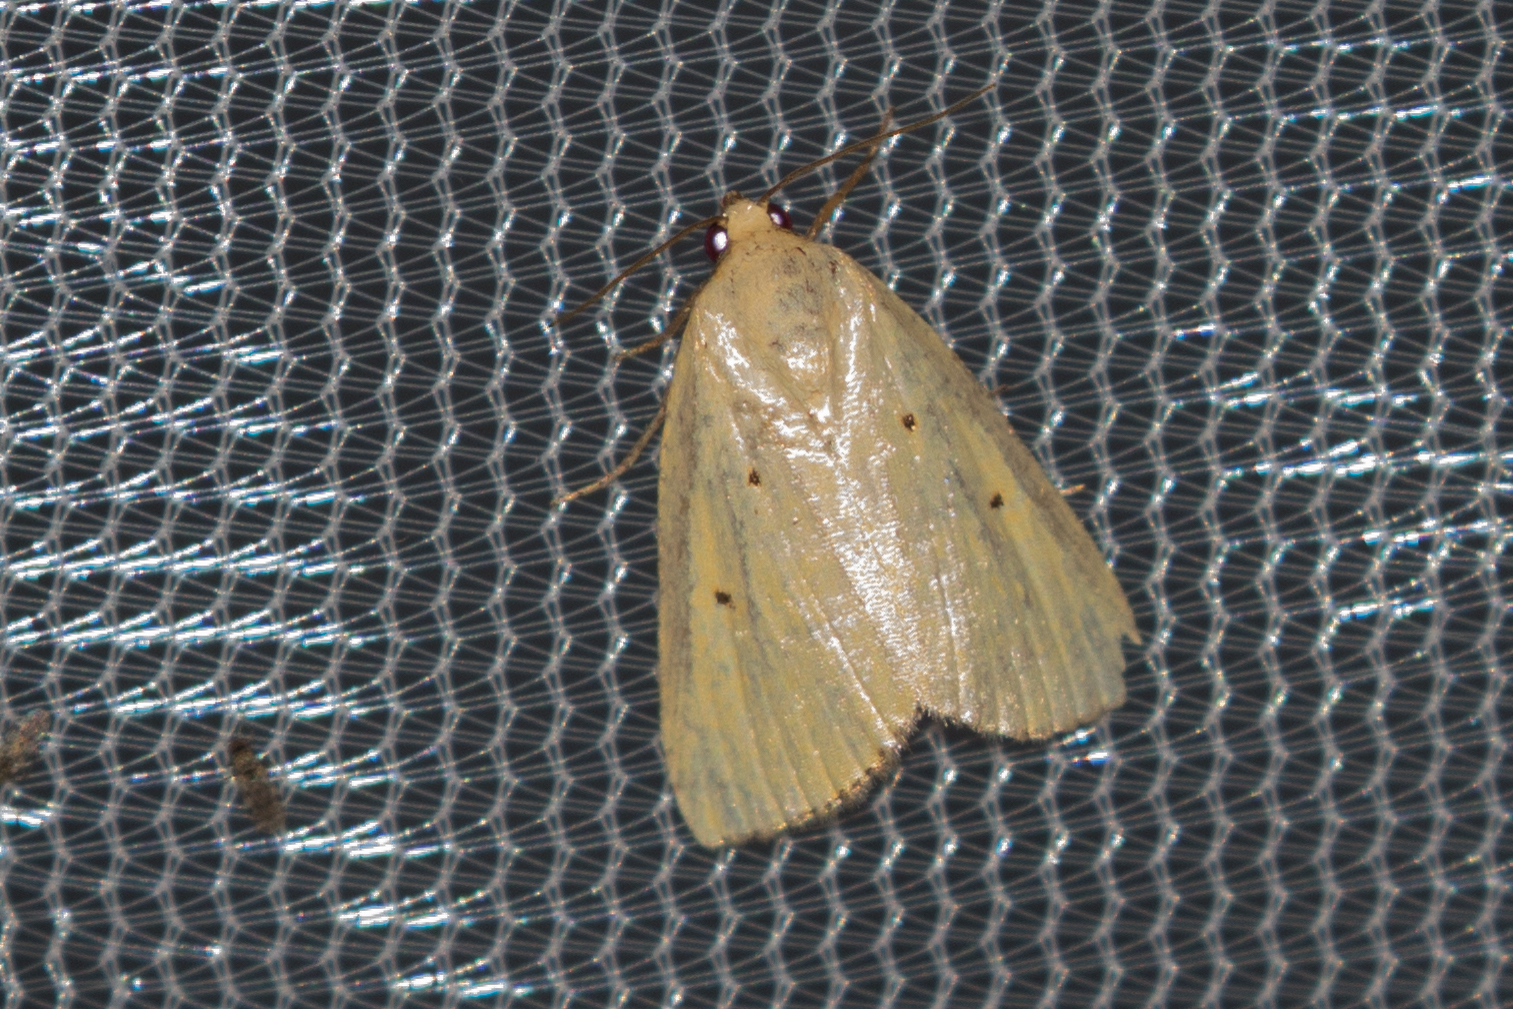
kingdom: Animalia
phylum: Arthropoda
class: Insecta
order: Lepidoptera
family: Noctuidae
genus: Marimatha
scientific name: Marimatha nigrofimbria
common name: Black-bordered lemon moth
